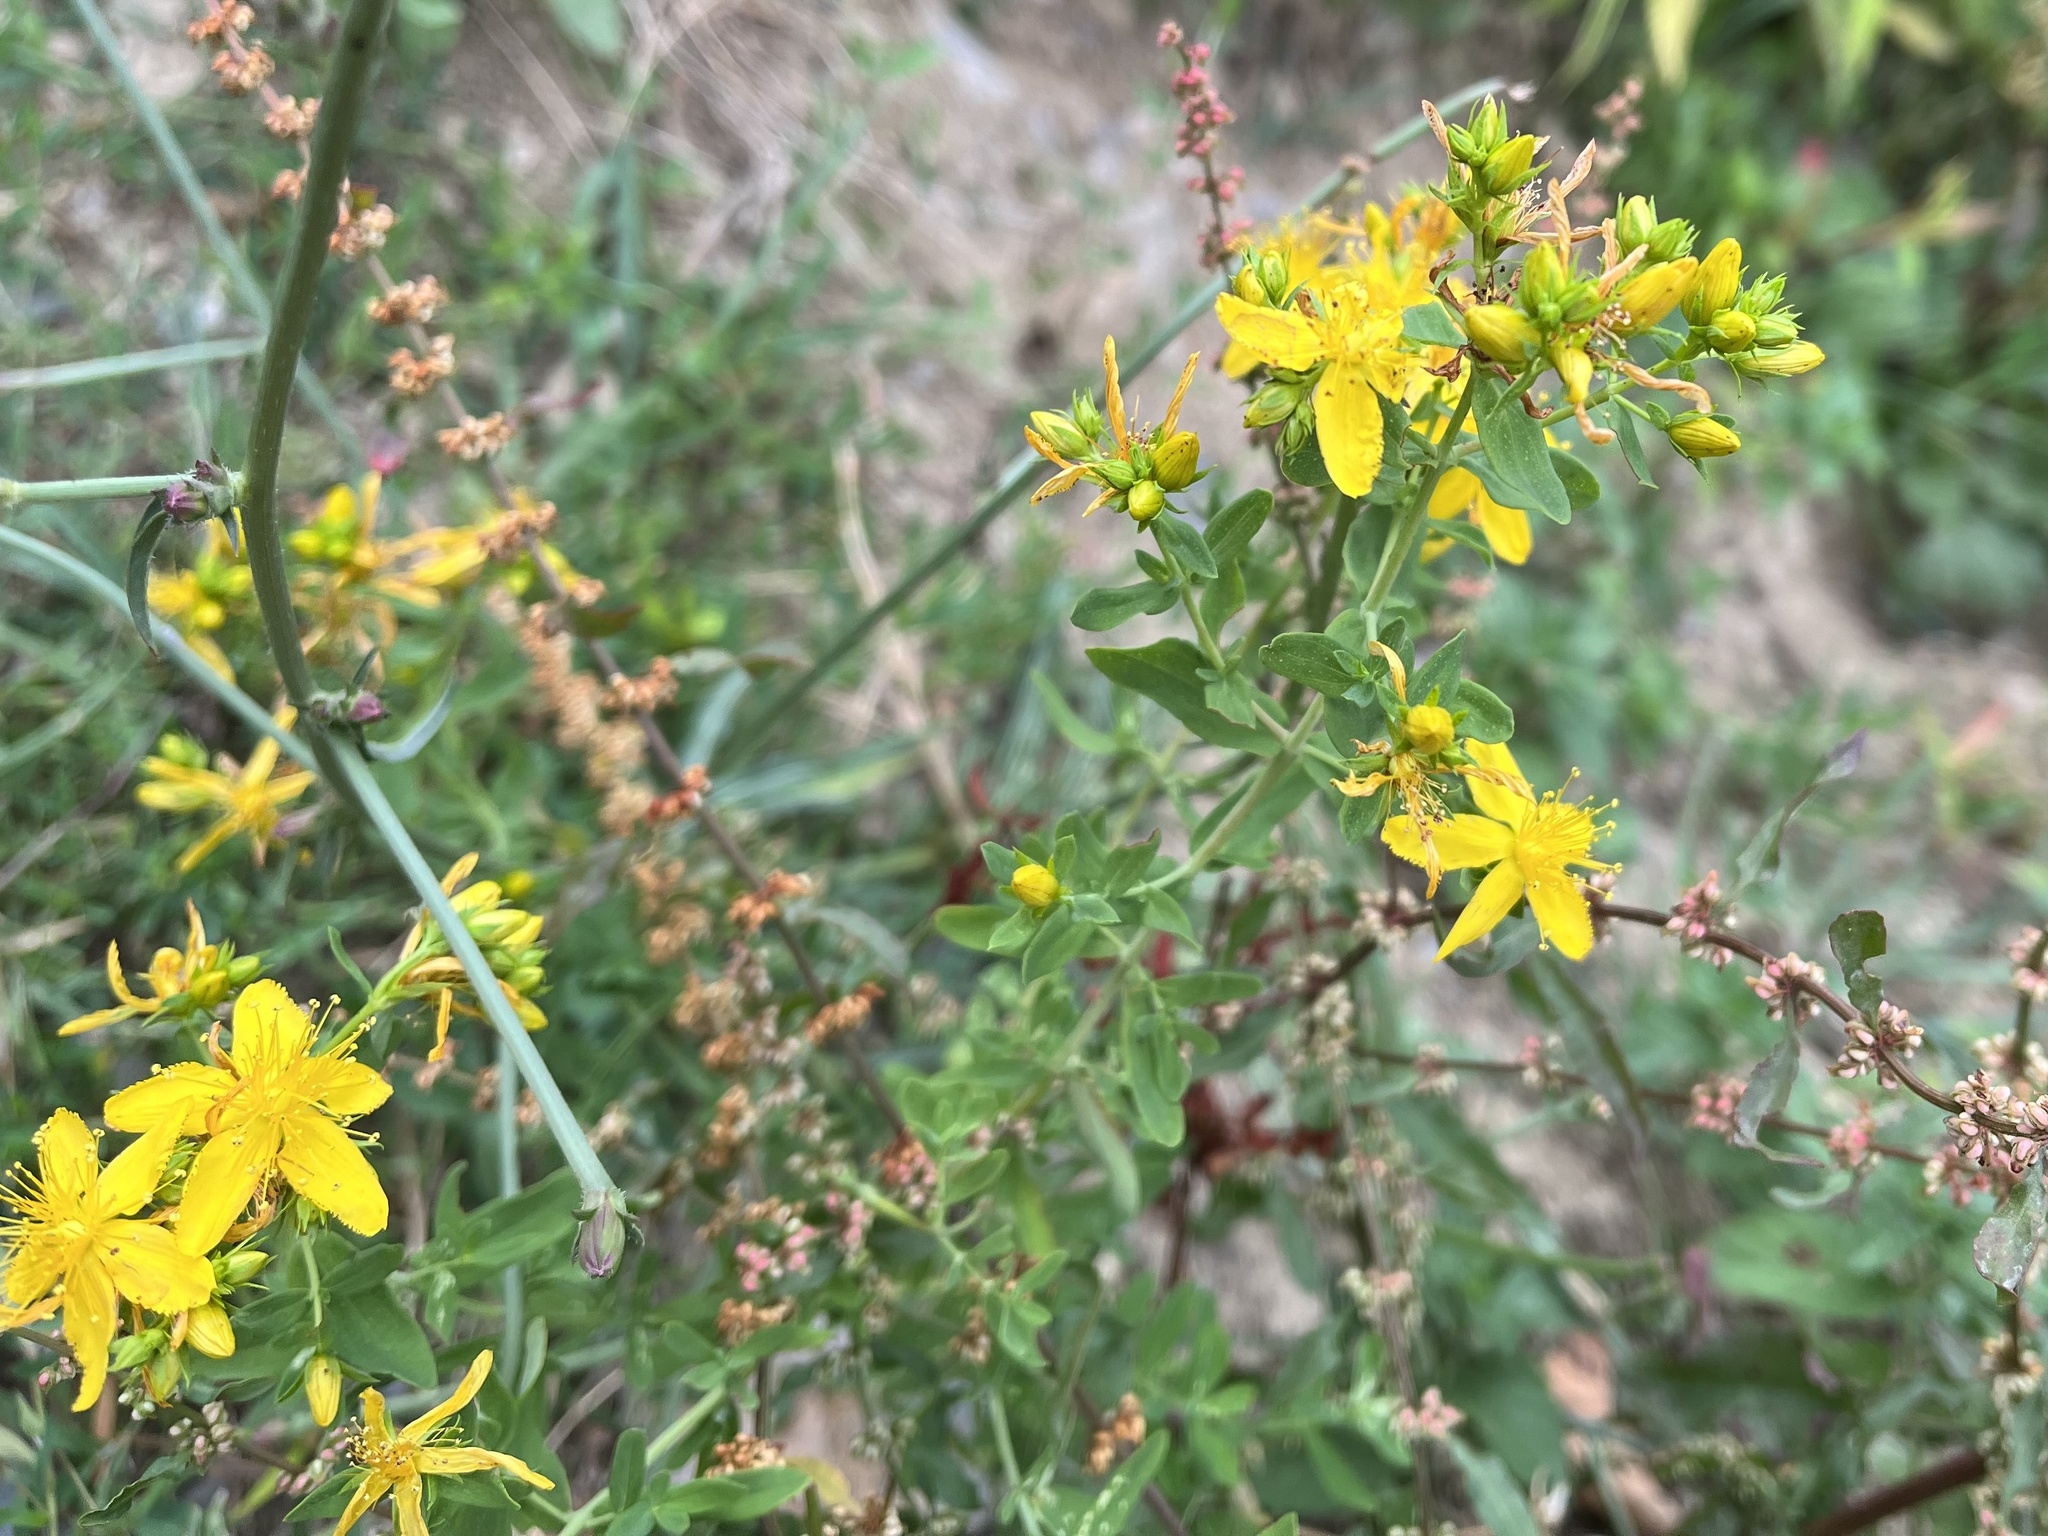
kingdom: Plantae
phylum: Tracheophyta
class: Magnoliopsida
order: Malpighiales
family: Hypericaceae
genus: Hypericum
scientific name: Hypericum perforatum
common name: Common st. johnswort
